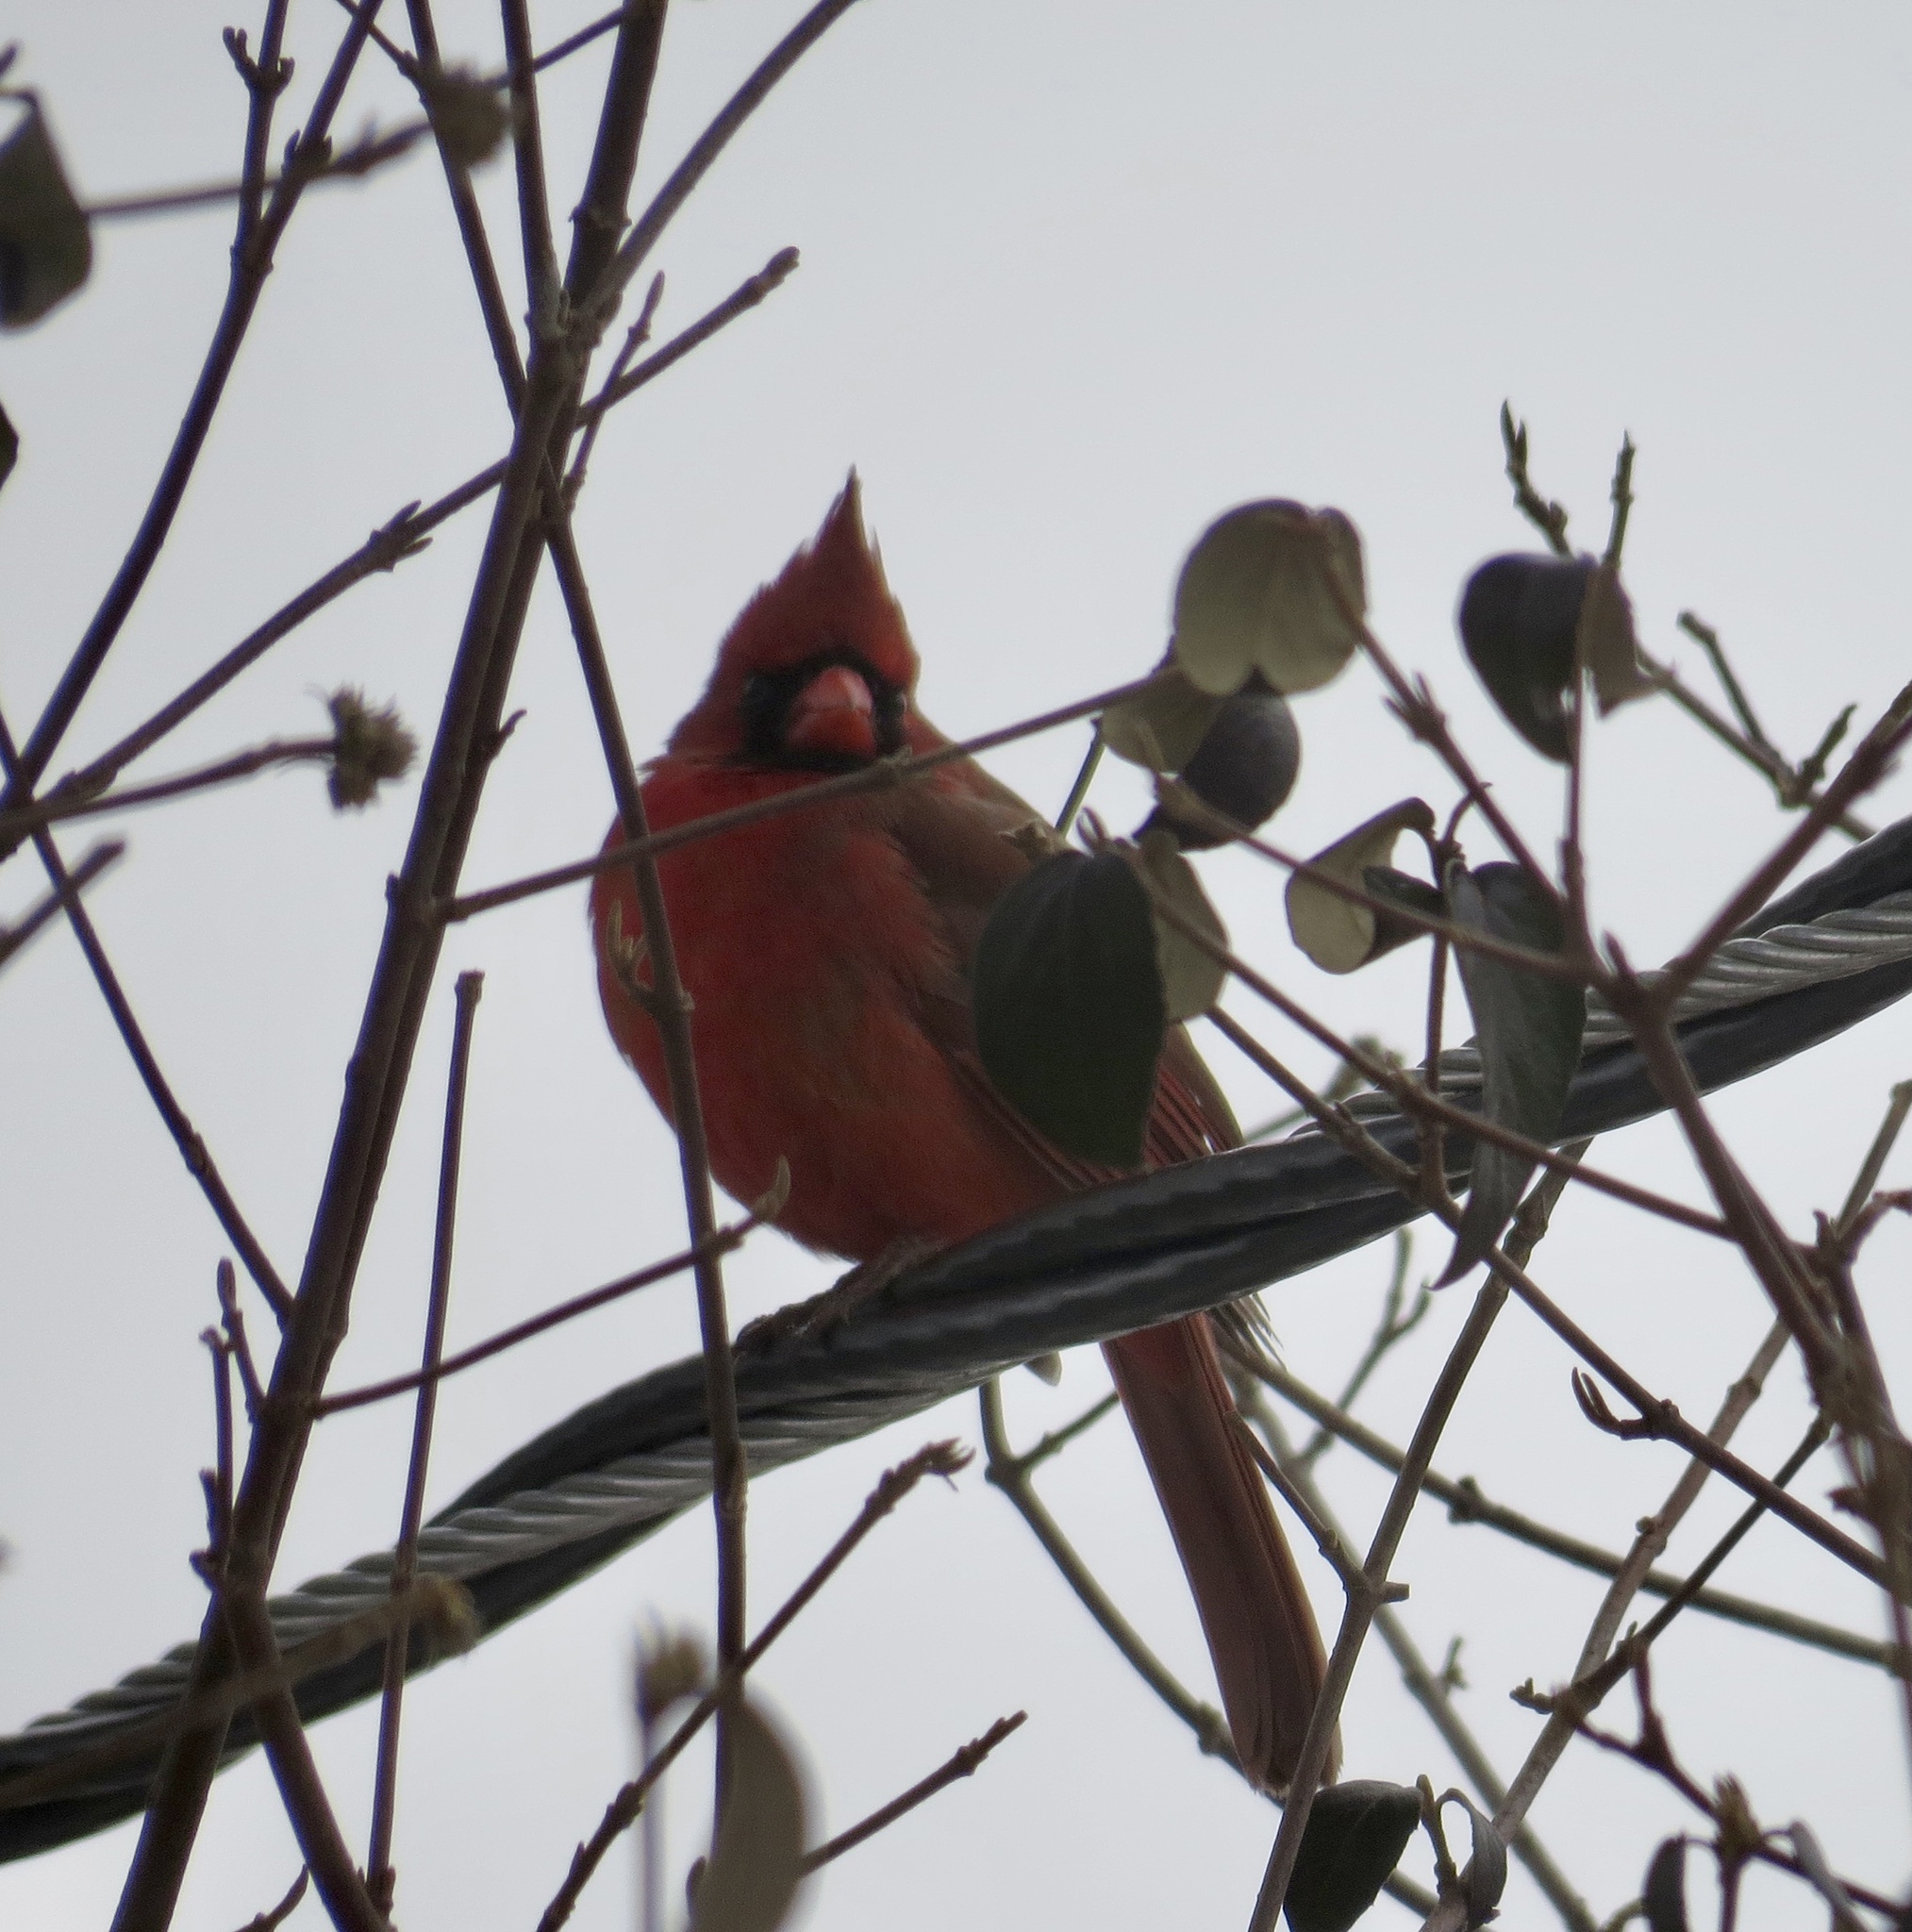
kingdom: Animalia
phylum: Chordata
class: Aves
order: Passeriformes
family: Cardinalidae
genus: Cardinalis
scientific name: Cardinalis cardinalis
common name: Northern cardinal
